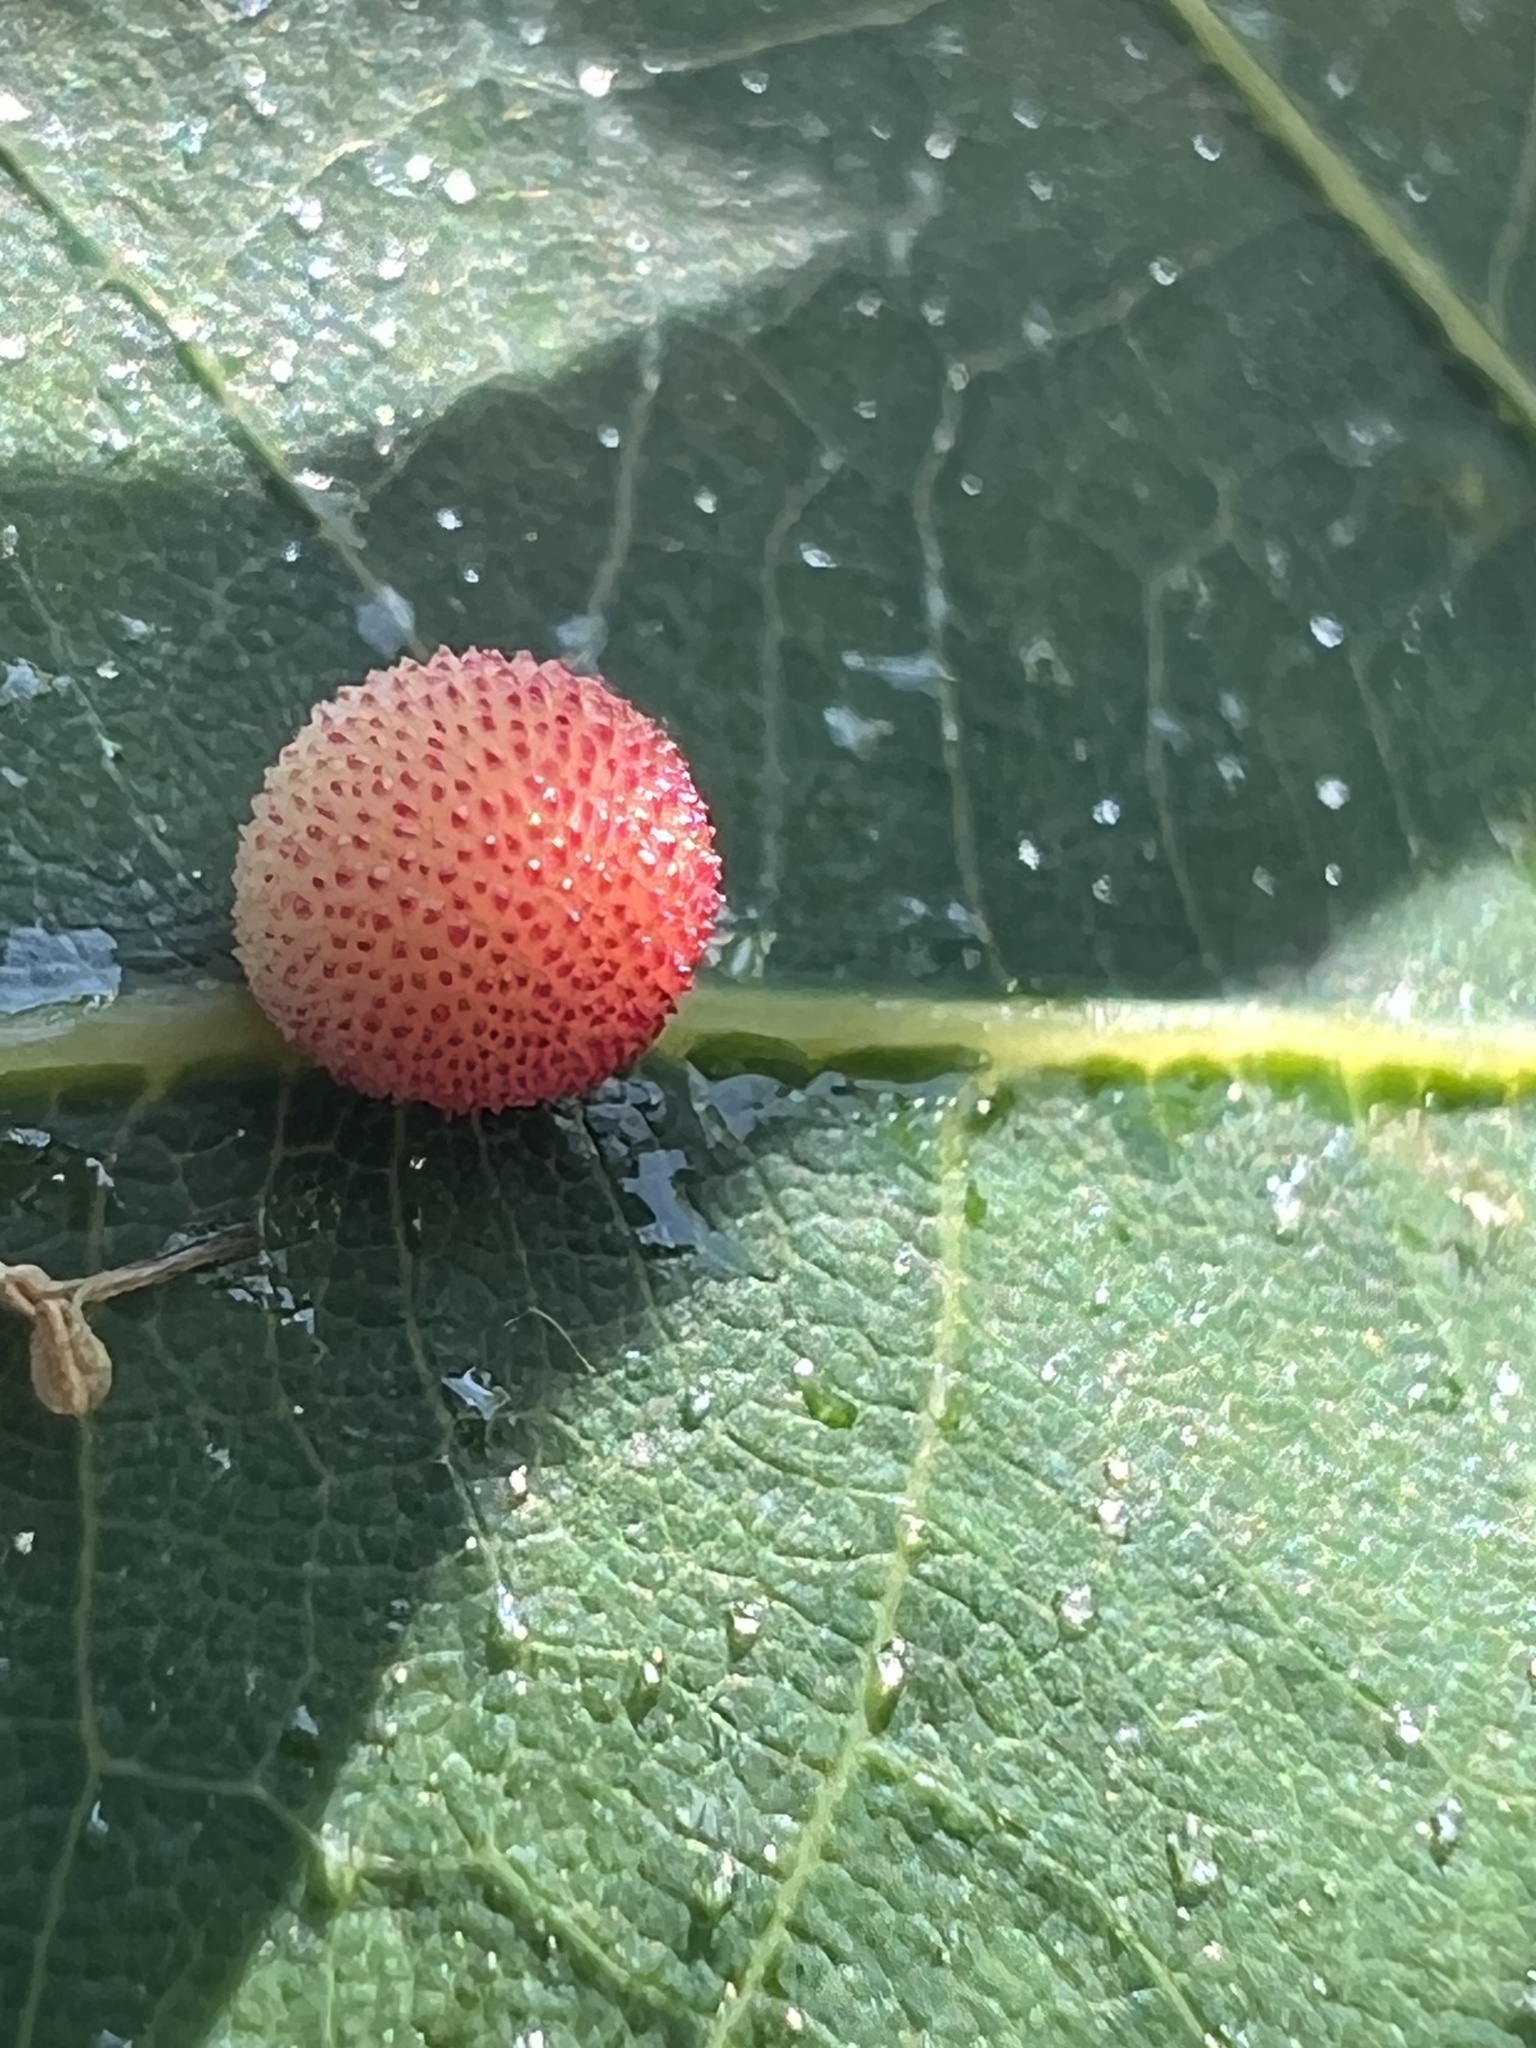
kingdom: Animalia
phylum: Arthropoda
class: Insecta
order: Hymenoptera
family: Cynipidae
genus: Acraspis
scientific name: Acraspis quercushirta
